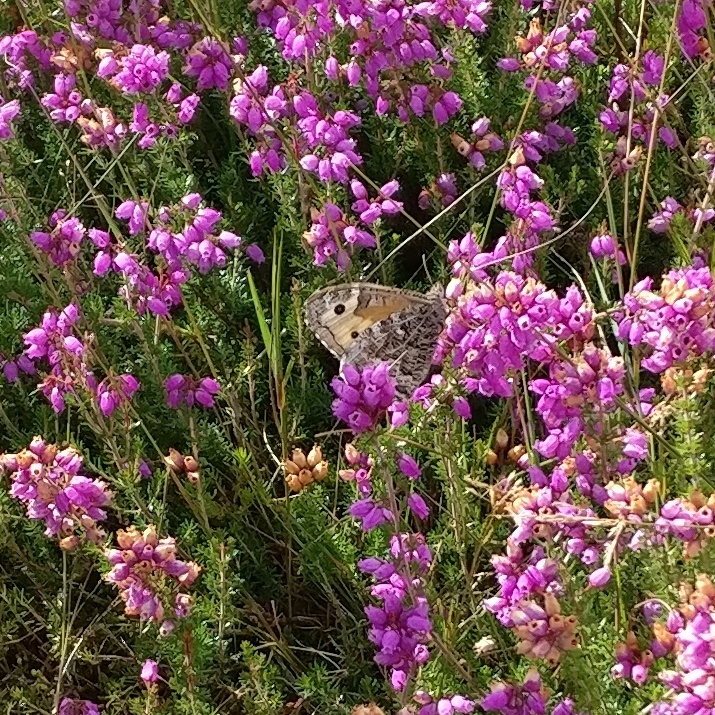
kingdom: Animalia
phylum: Arthropoda
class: Insecta
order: Lepidoptera
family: Nymphalidae
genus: Hipparchia
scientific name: Hipparchia semele
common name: Grayling
